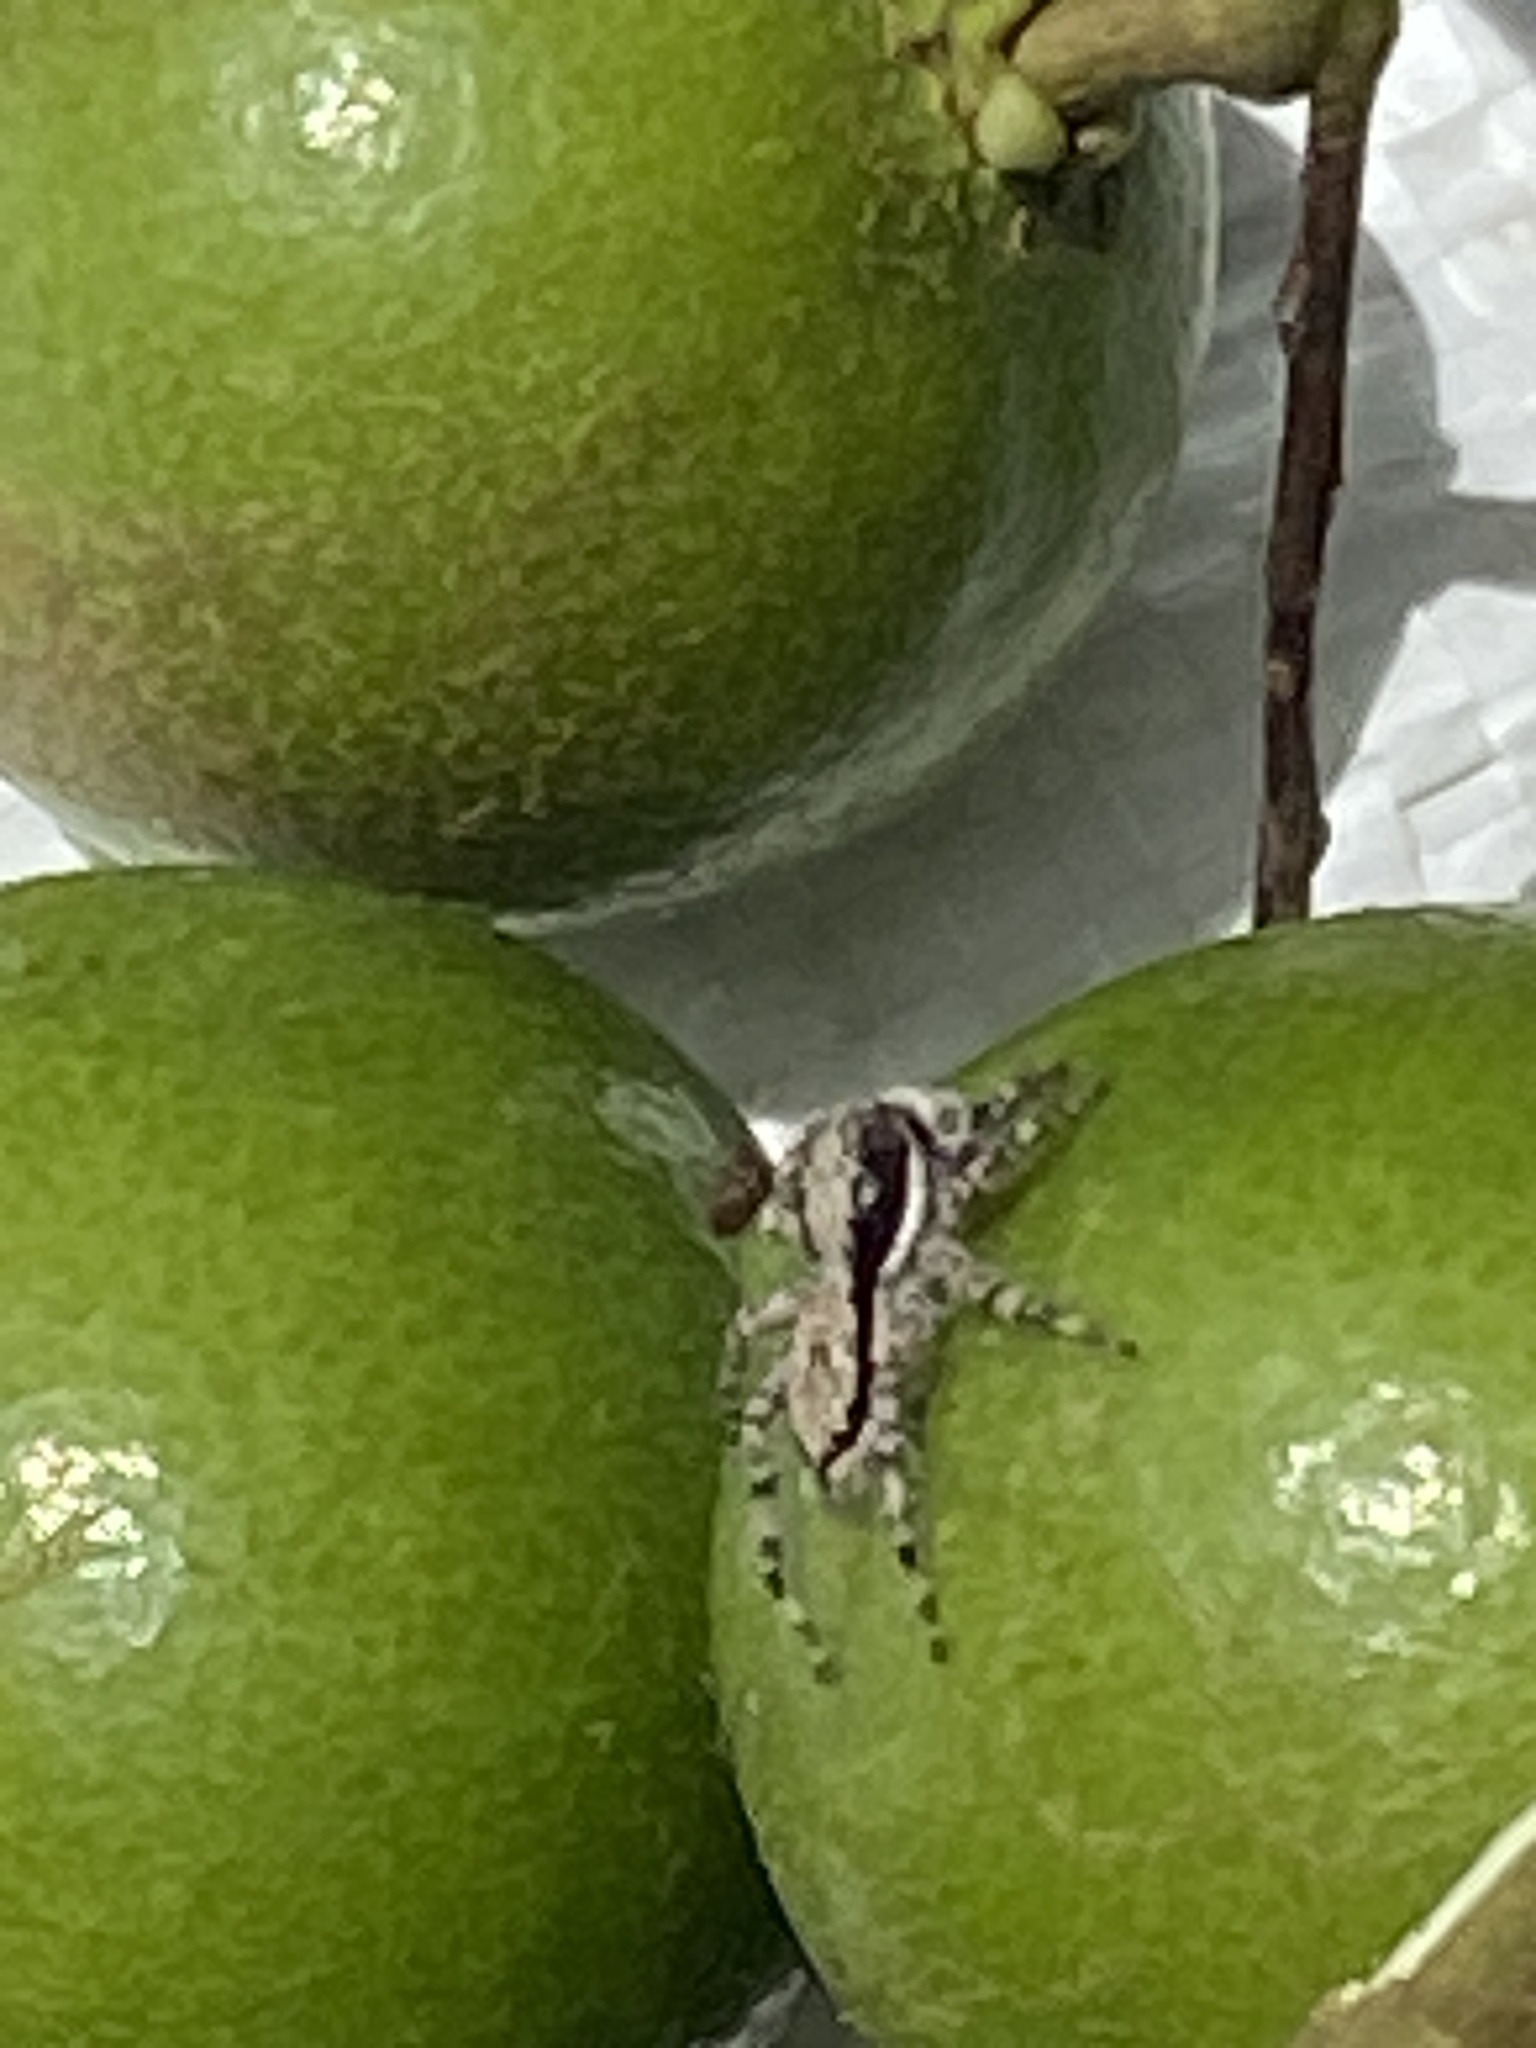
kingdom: Animalia
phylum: Arthropoda
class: Arachnida
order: Araneae
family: Salticidae
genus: Menemerus
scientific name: Menemerus bivittatus
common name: Gray wall jumper
